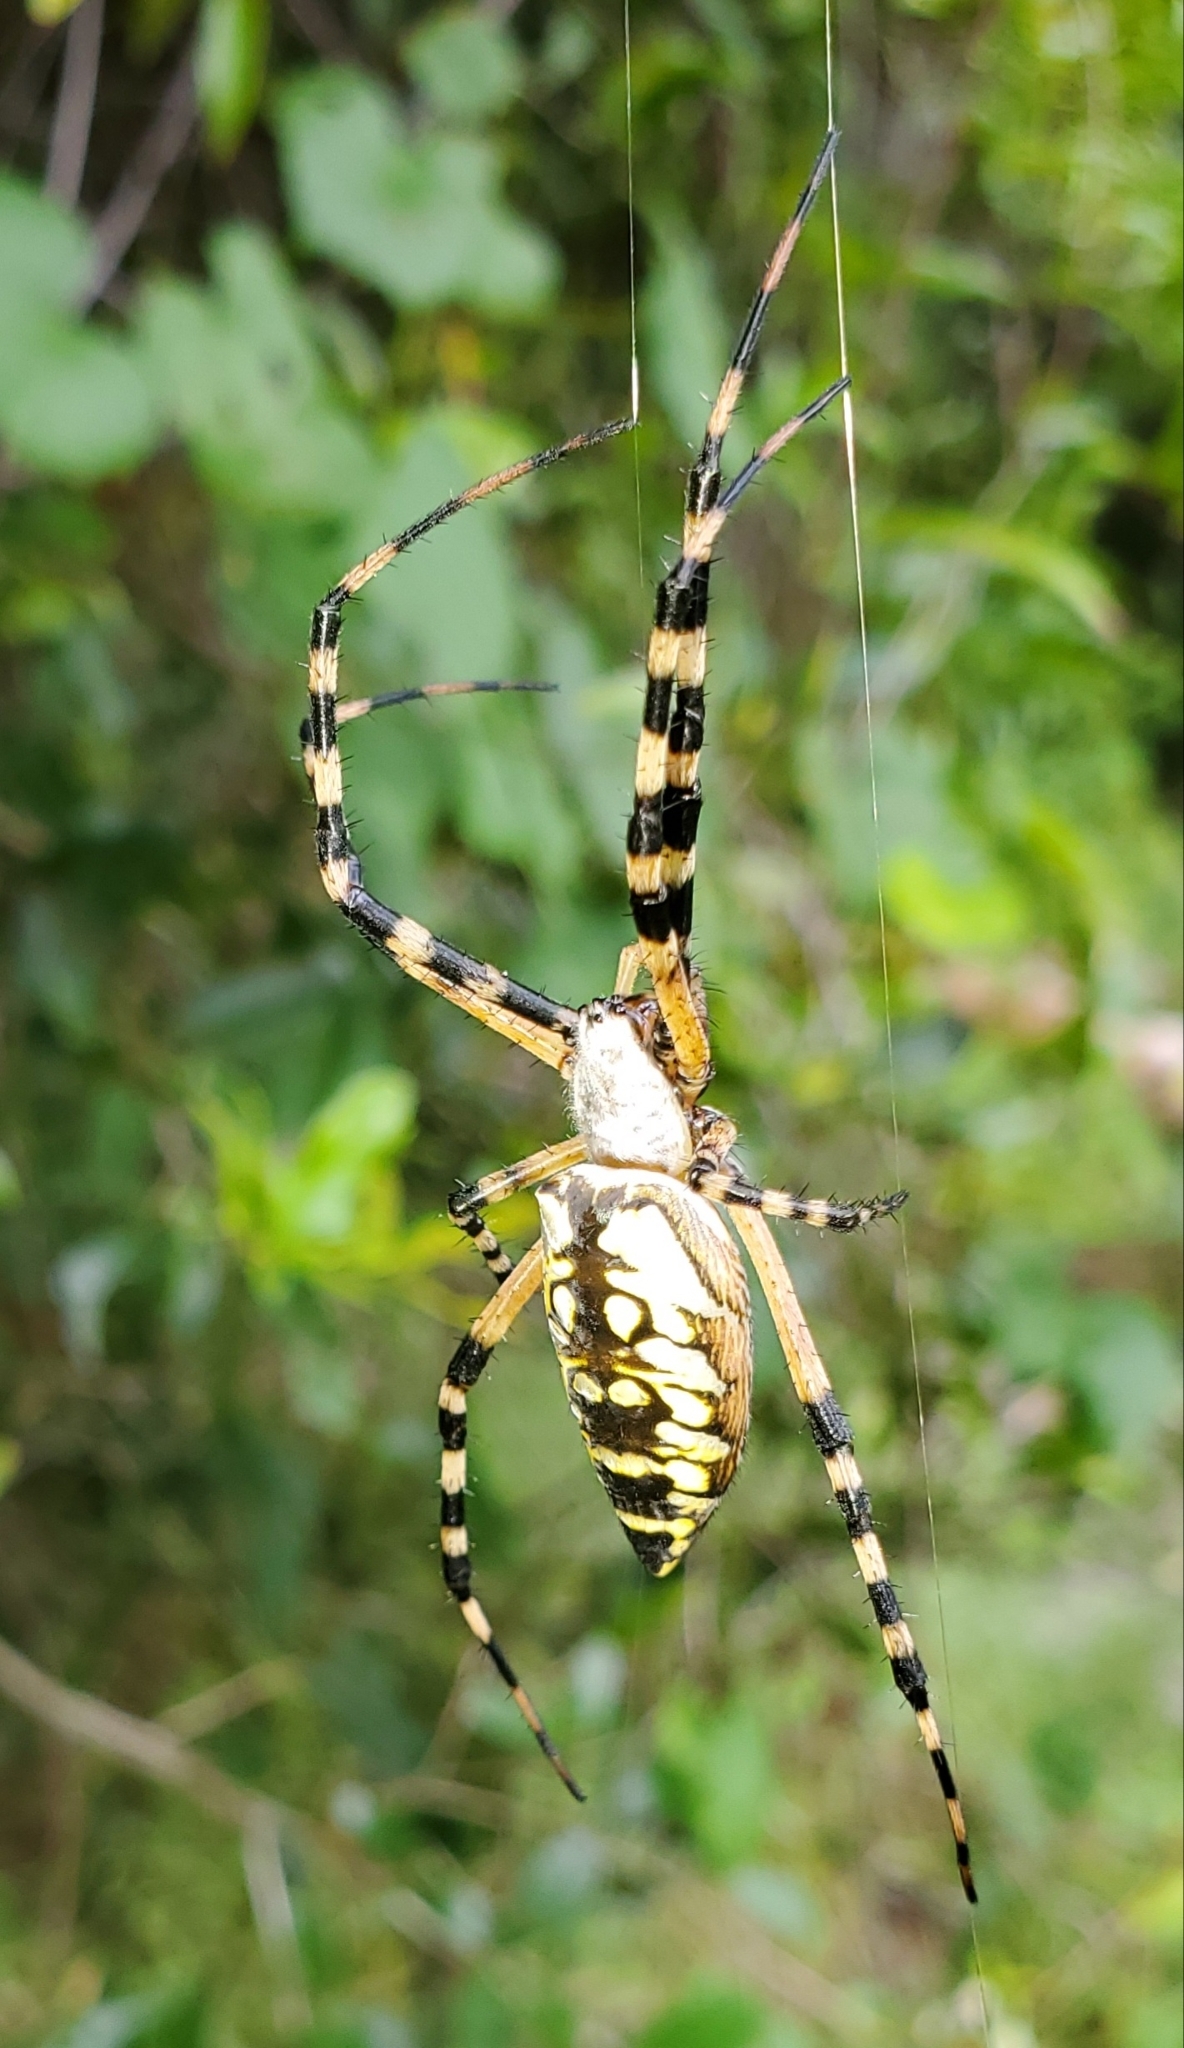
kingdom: Animalia
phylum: Arthropoda
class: Arachnida
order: Araneae
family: Araneidae
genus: Argiope
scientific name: Argiope aurantia
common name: Orb weavers
